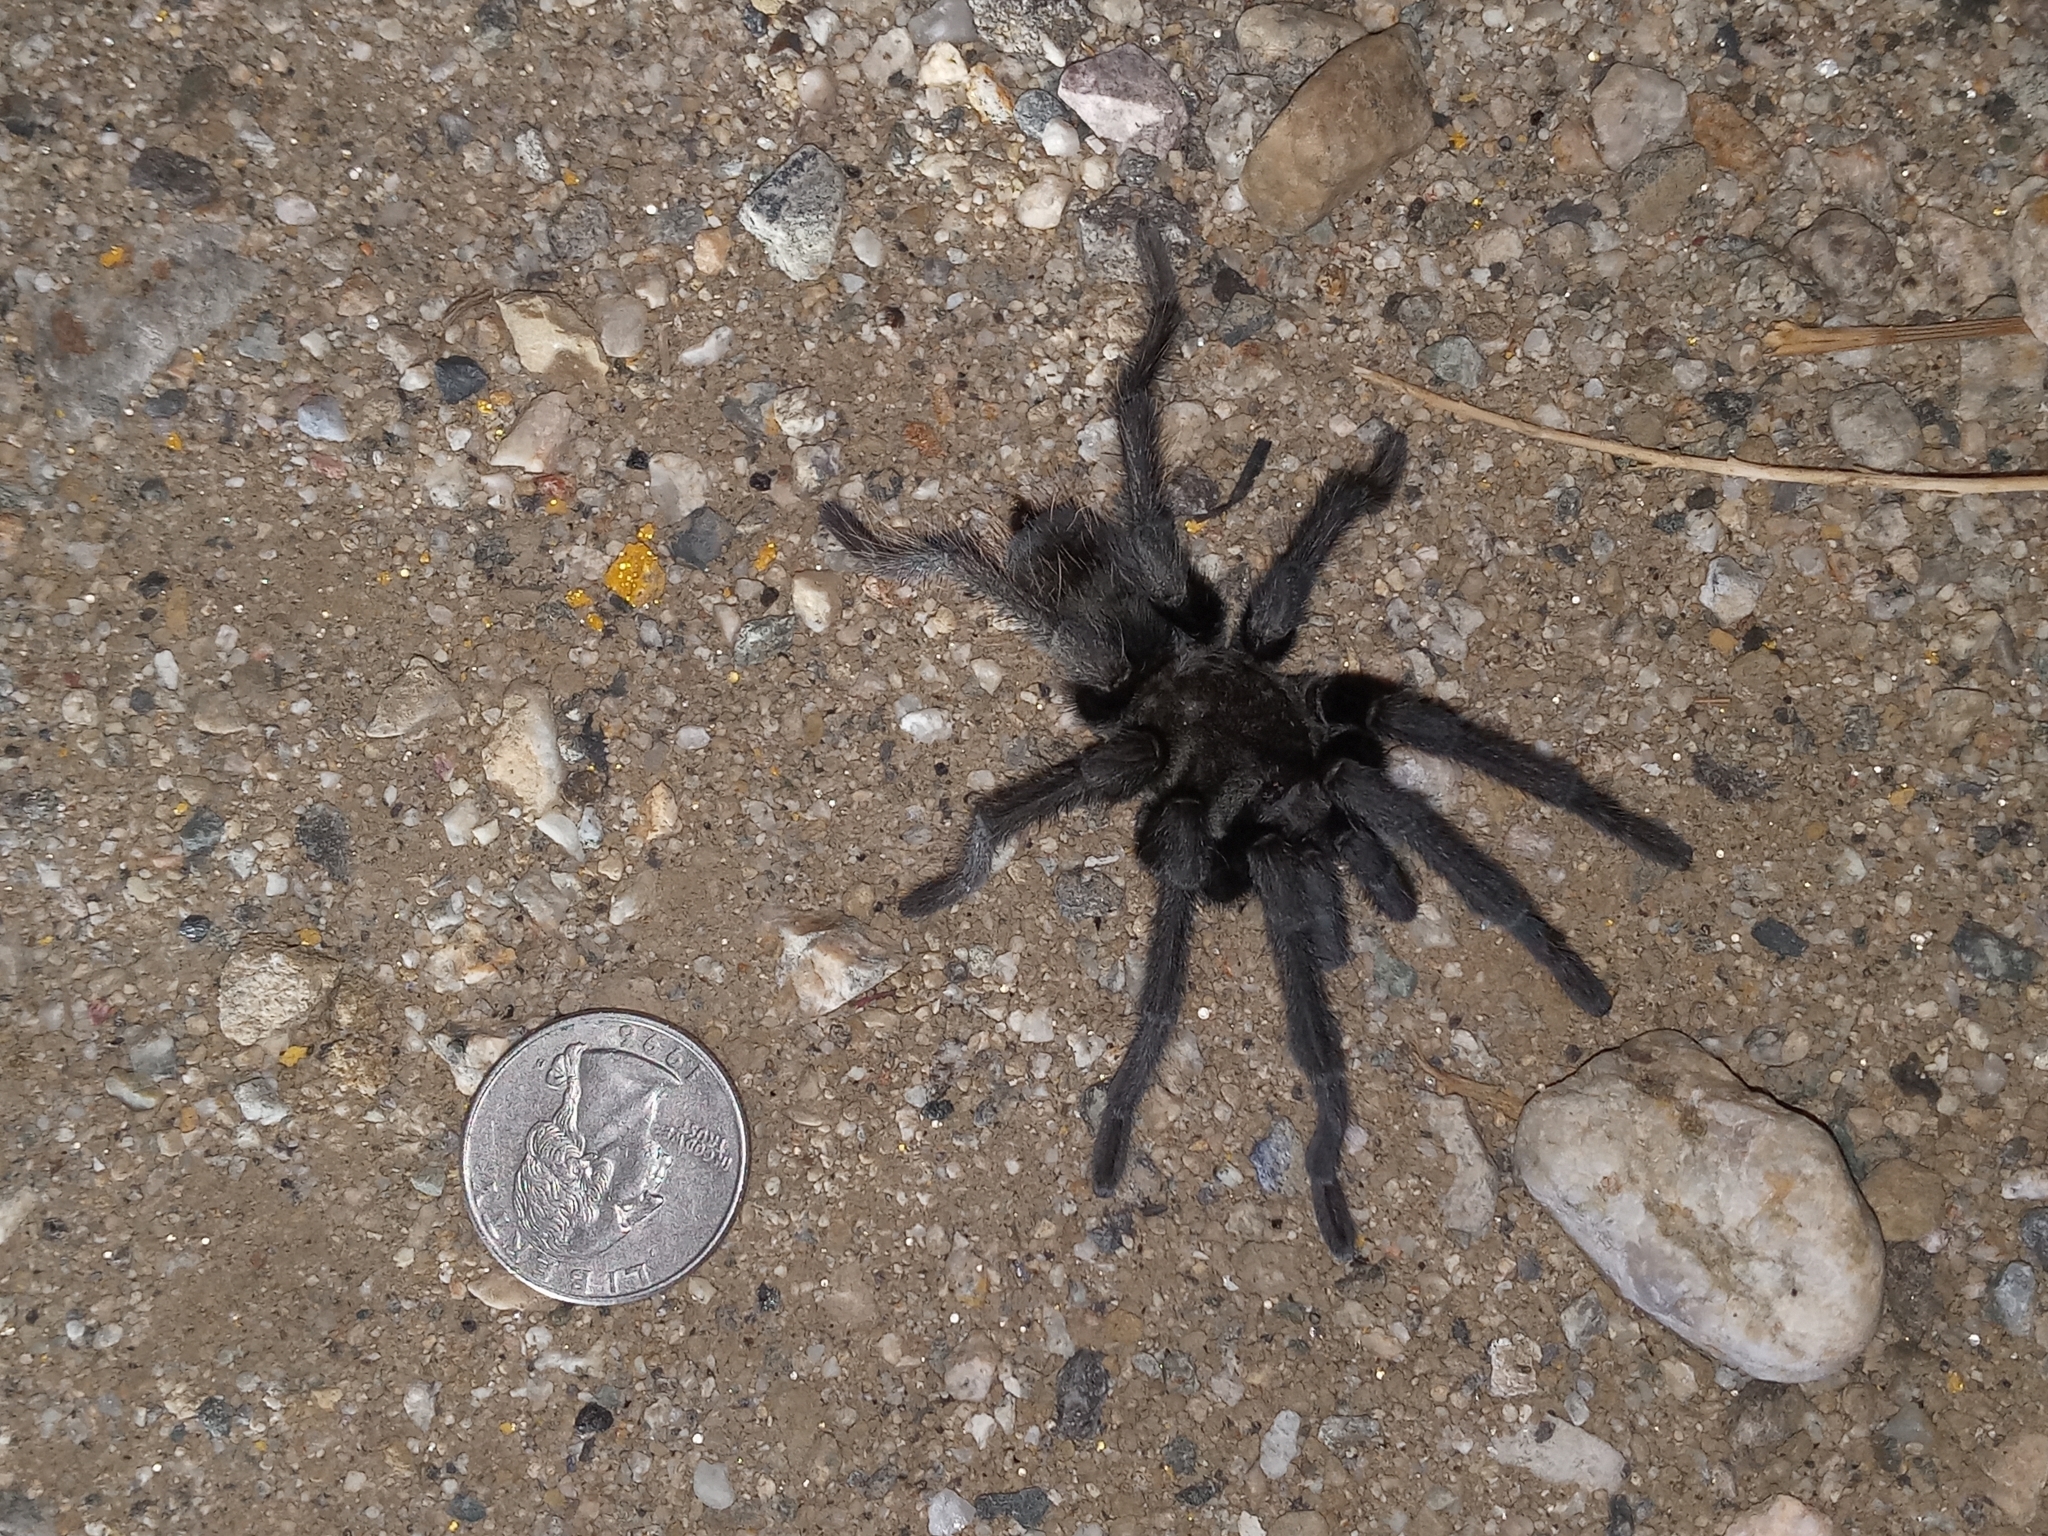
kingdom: Animalia
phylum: Arthropoda
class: Arachnida
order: Araneae
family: Theraphosidae
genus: Aphonopelma
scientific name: Aphonopelma steindachneri
